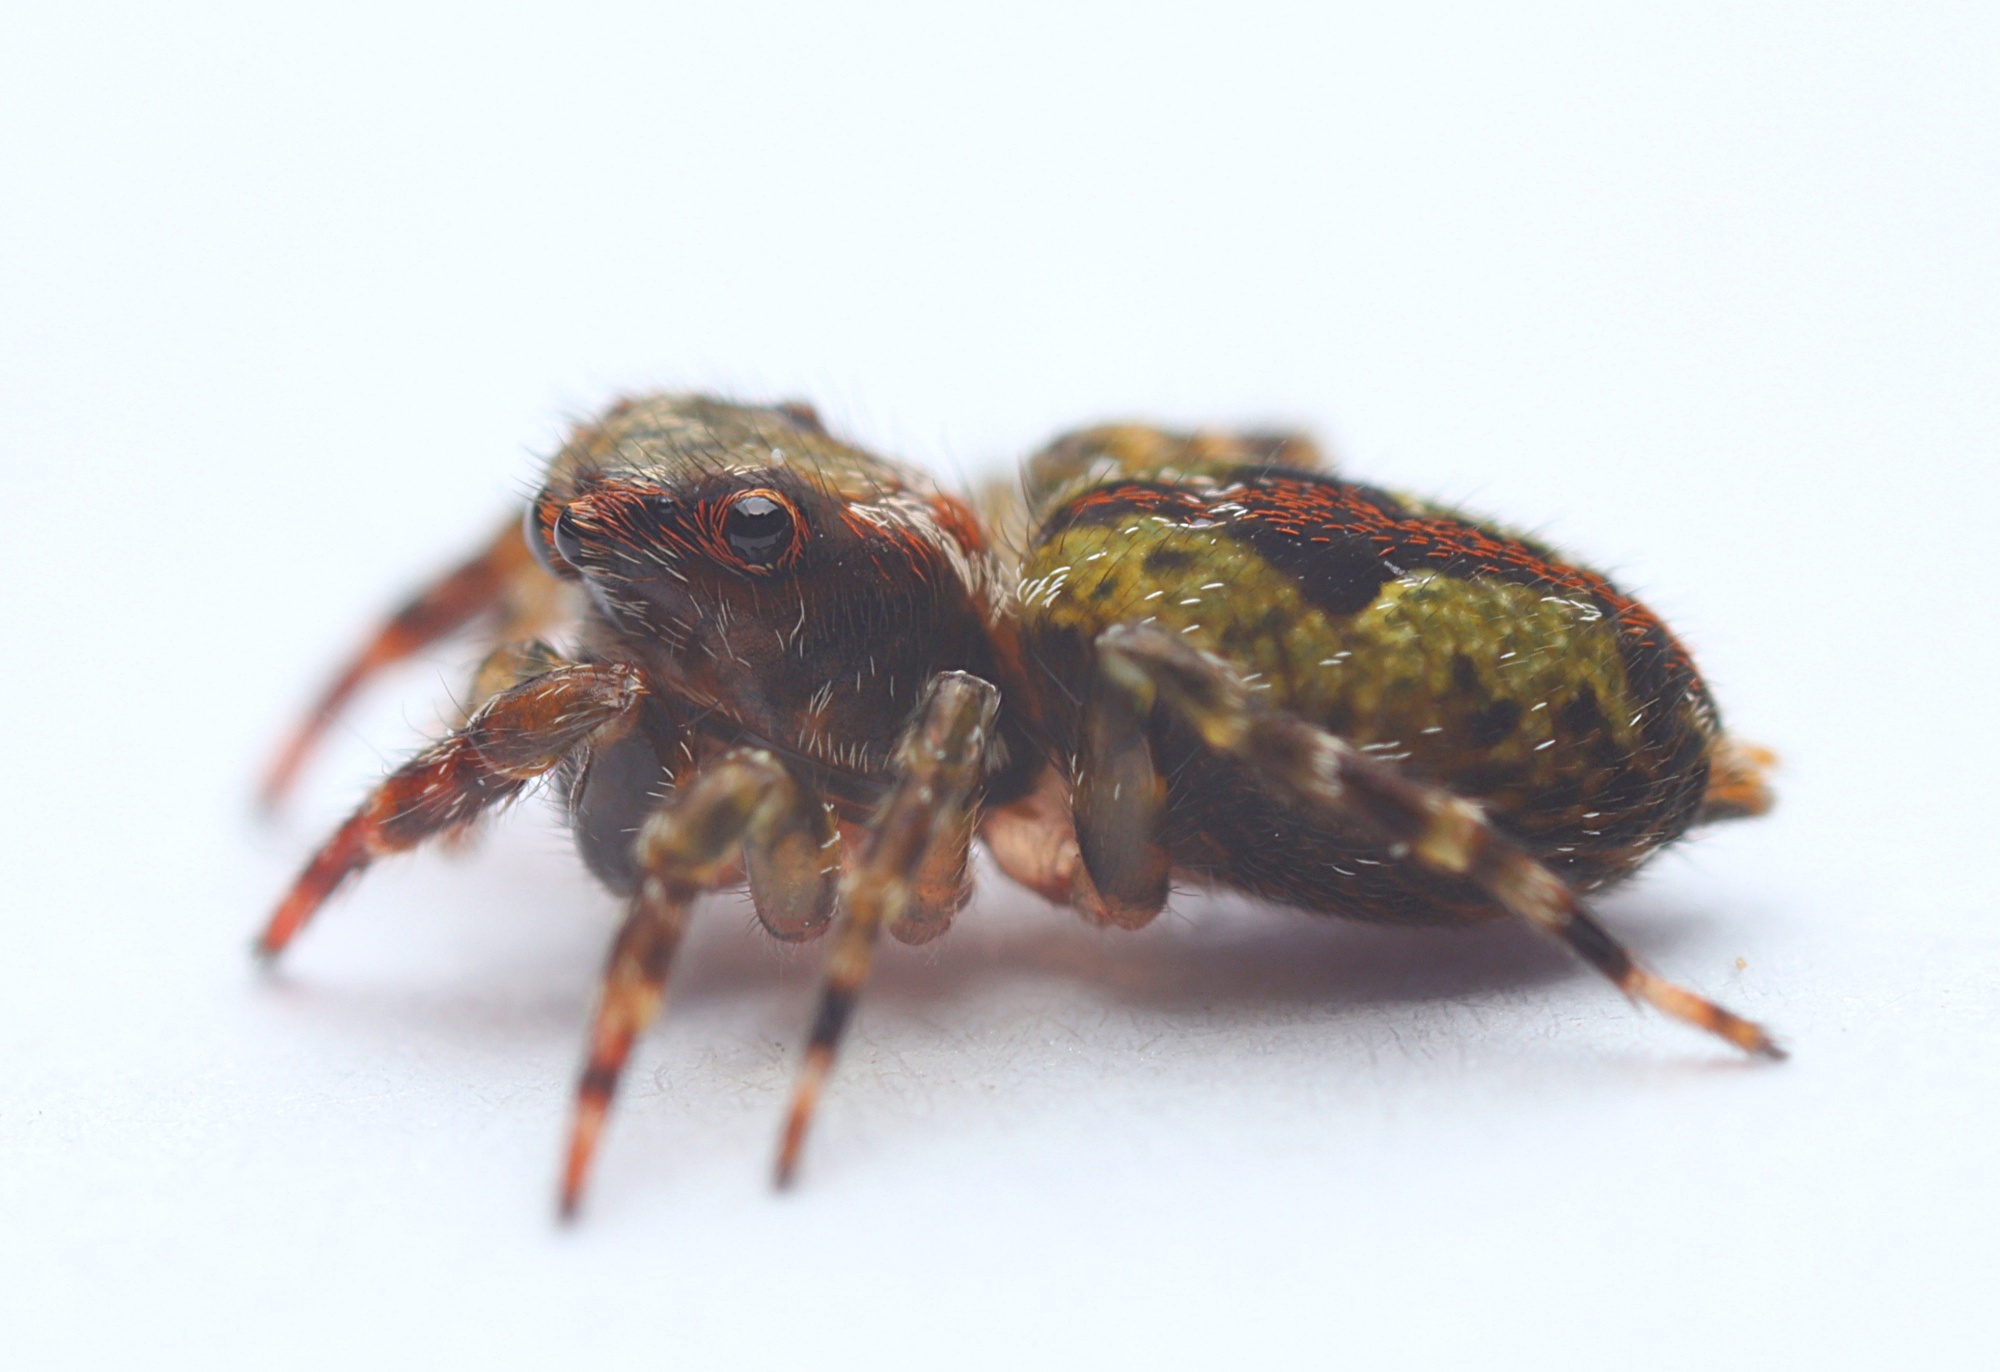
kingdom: Animalia
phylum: Arthropoda
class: Arachnida
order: Araneae
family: Salticidae
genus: Hinewaia
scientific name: Hinewaia embolica
